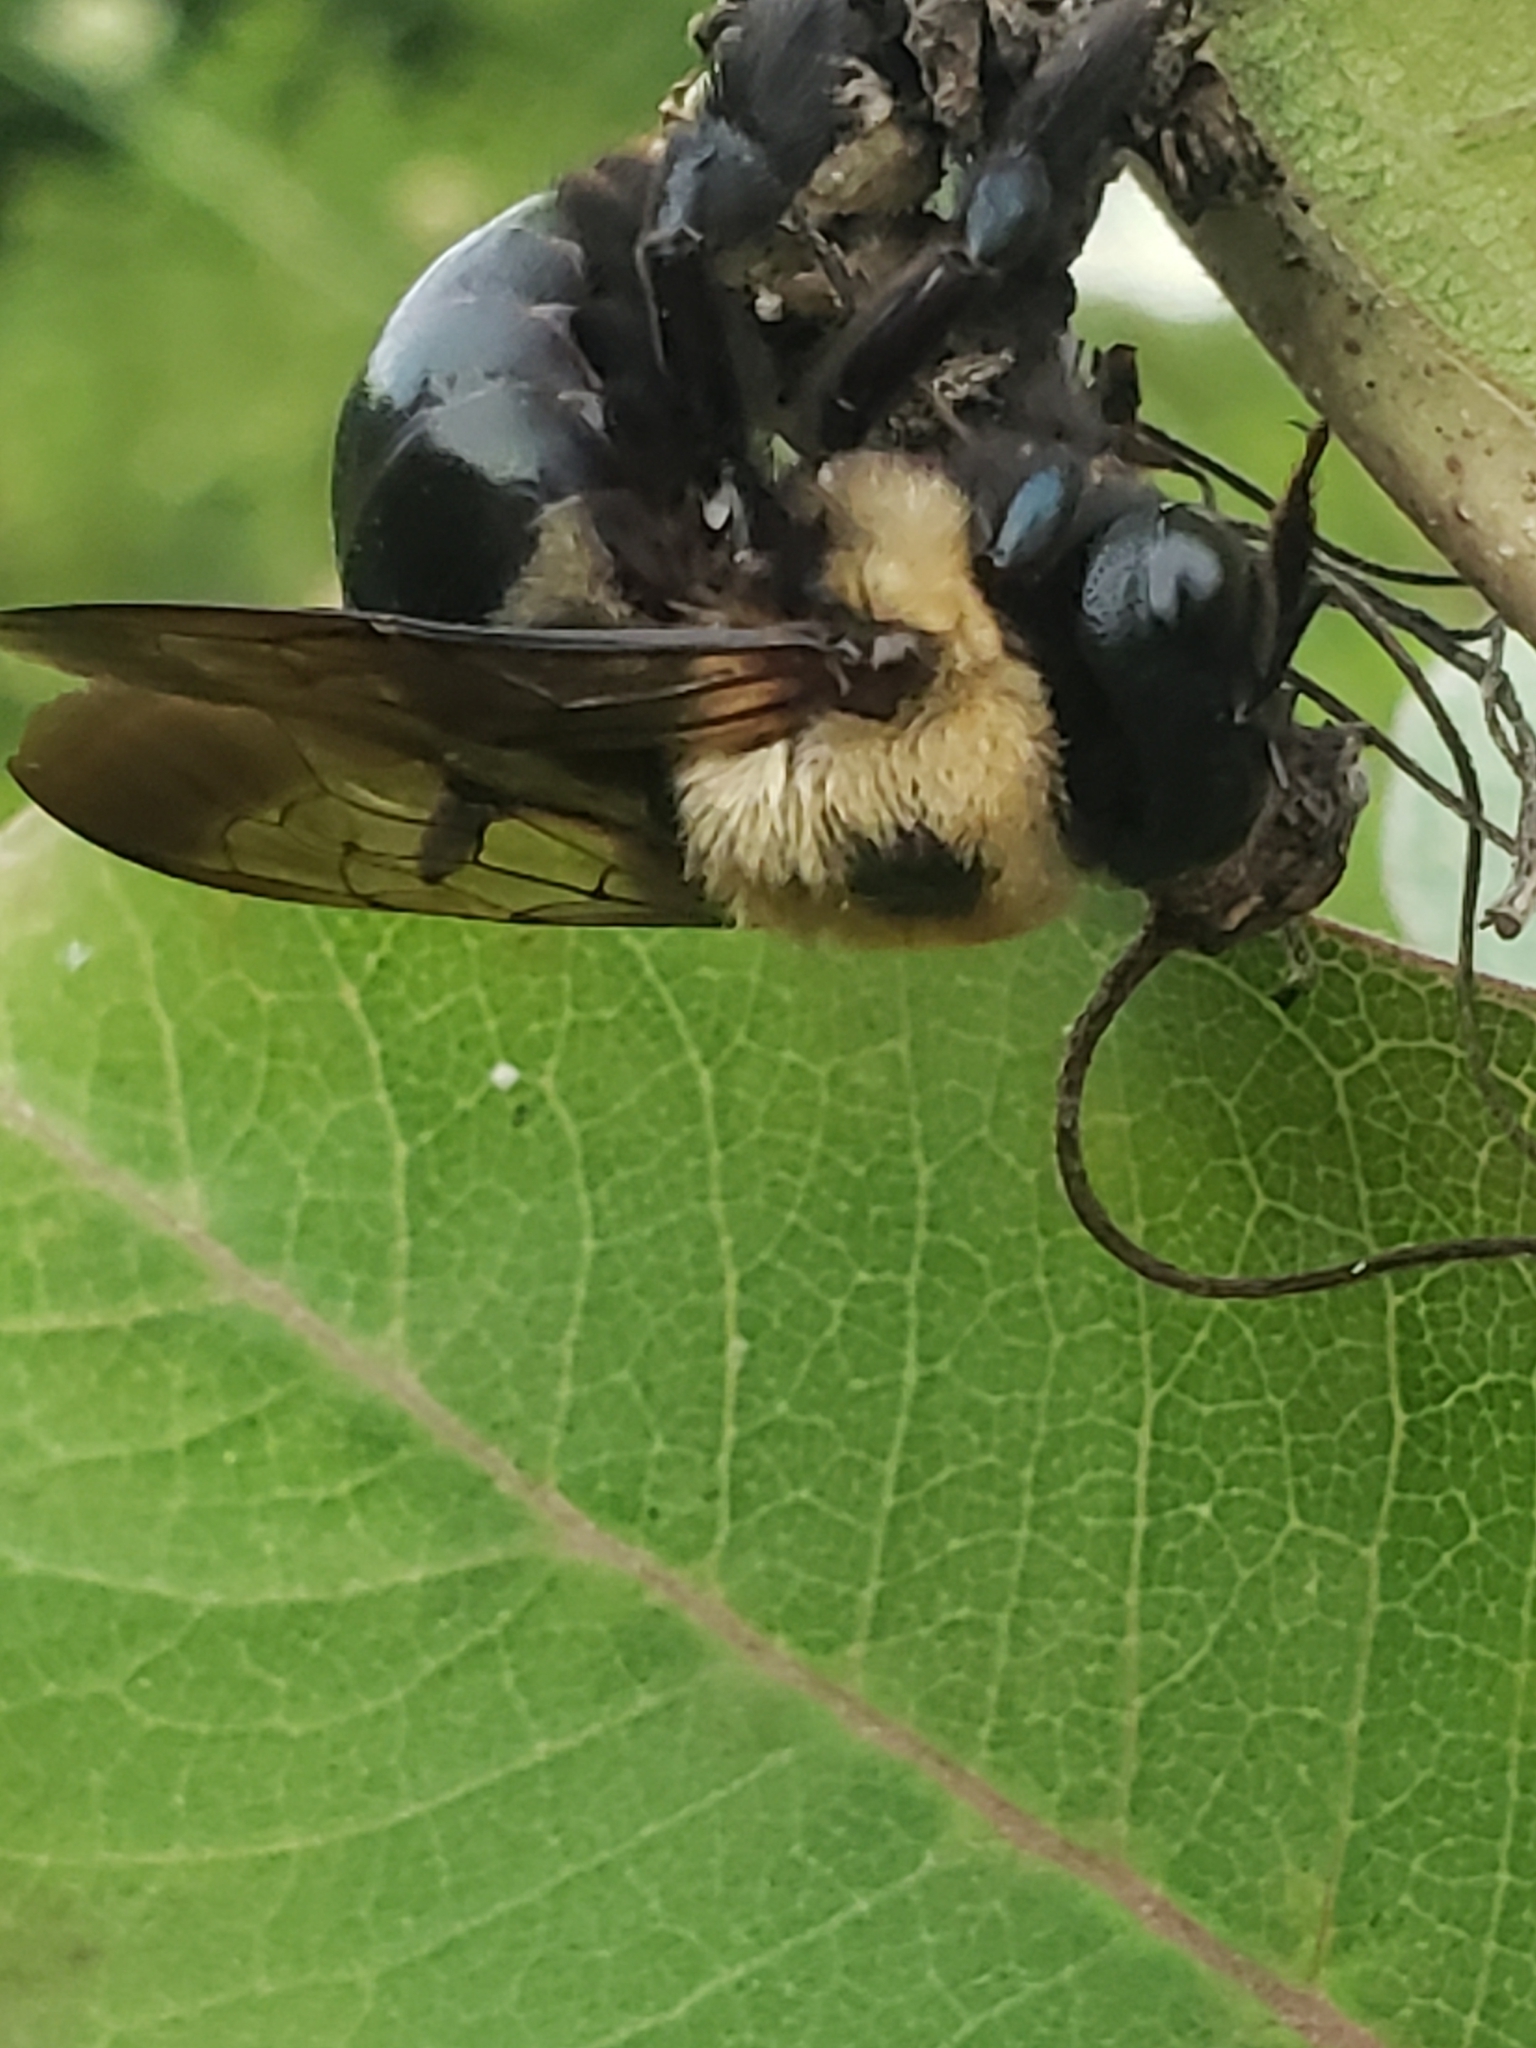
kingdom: Animalia
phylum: Arthropoda
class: Insecta
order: Hymenoptera
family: Apidae
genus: Xylocopa
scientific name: Xylocopa virginica
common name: Carpenter bee
